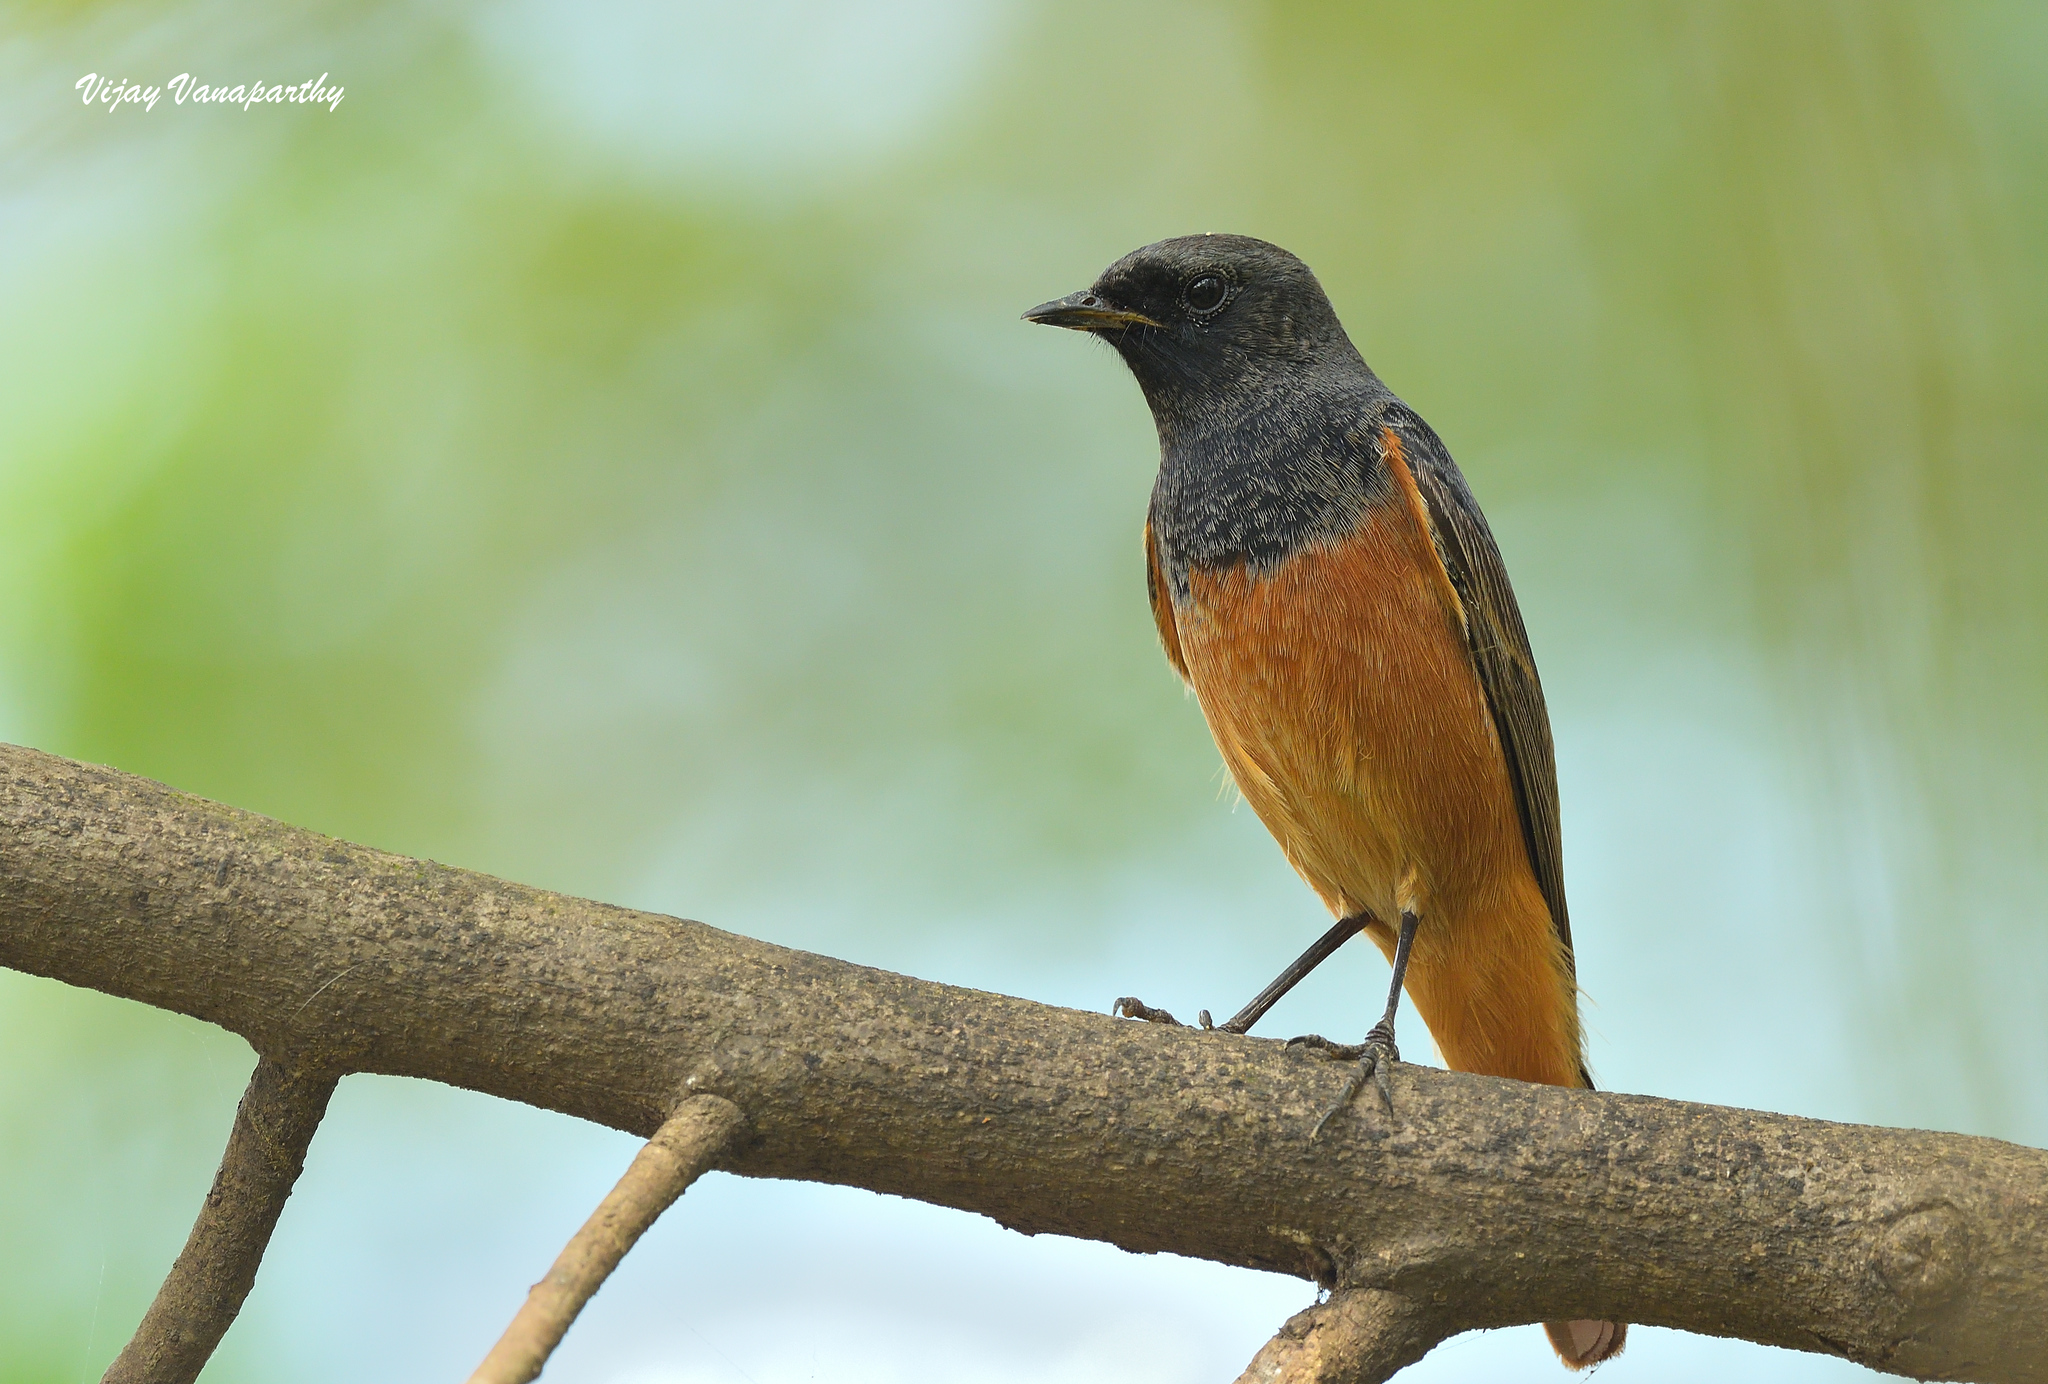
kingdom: Animalia
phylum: Chordata
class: Aves
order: Passeriformes
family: Muscicapidae
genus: Phoenicurus
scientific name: Phoenicurus ochruros
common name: Black redstart
